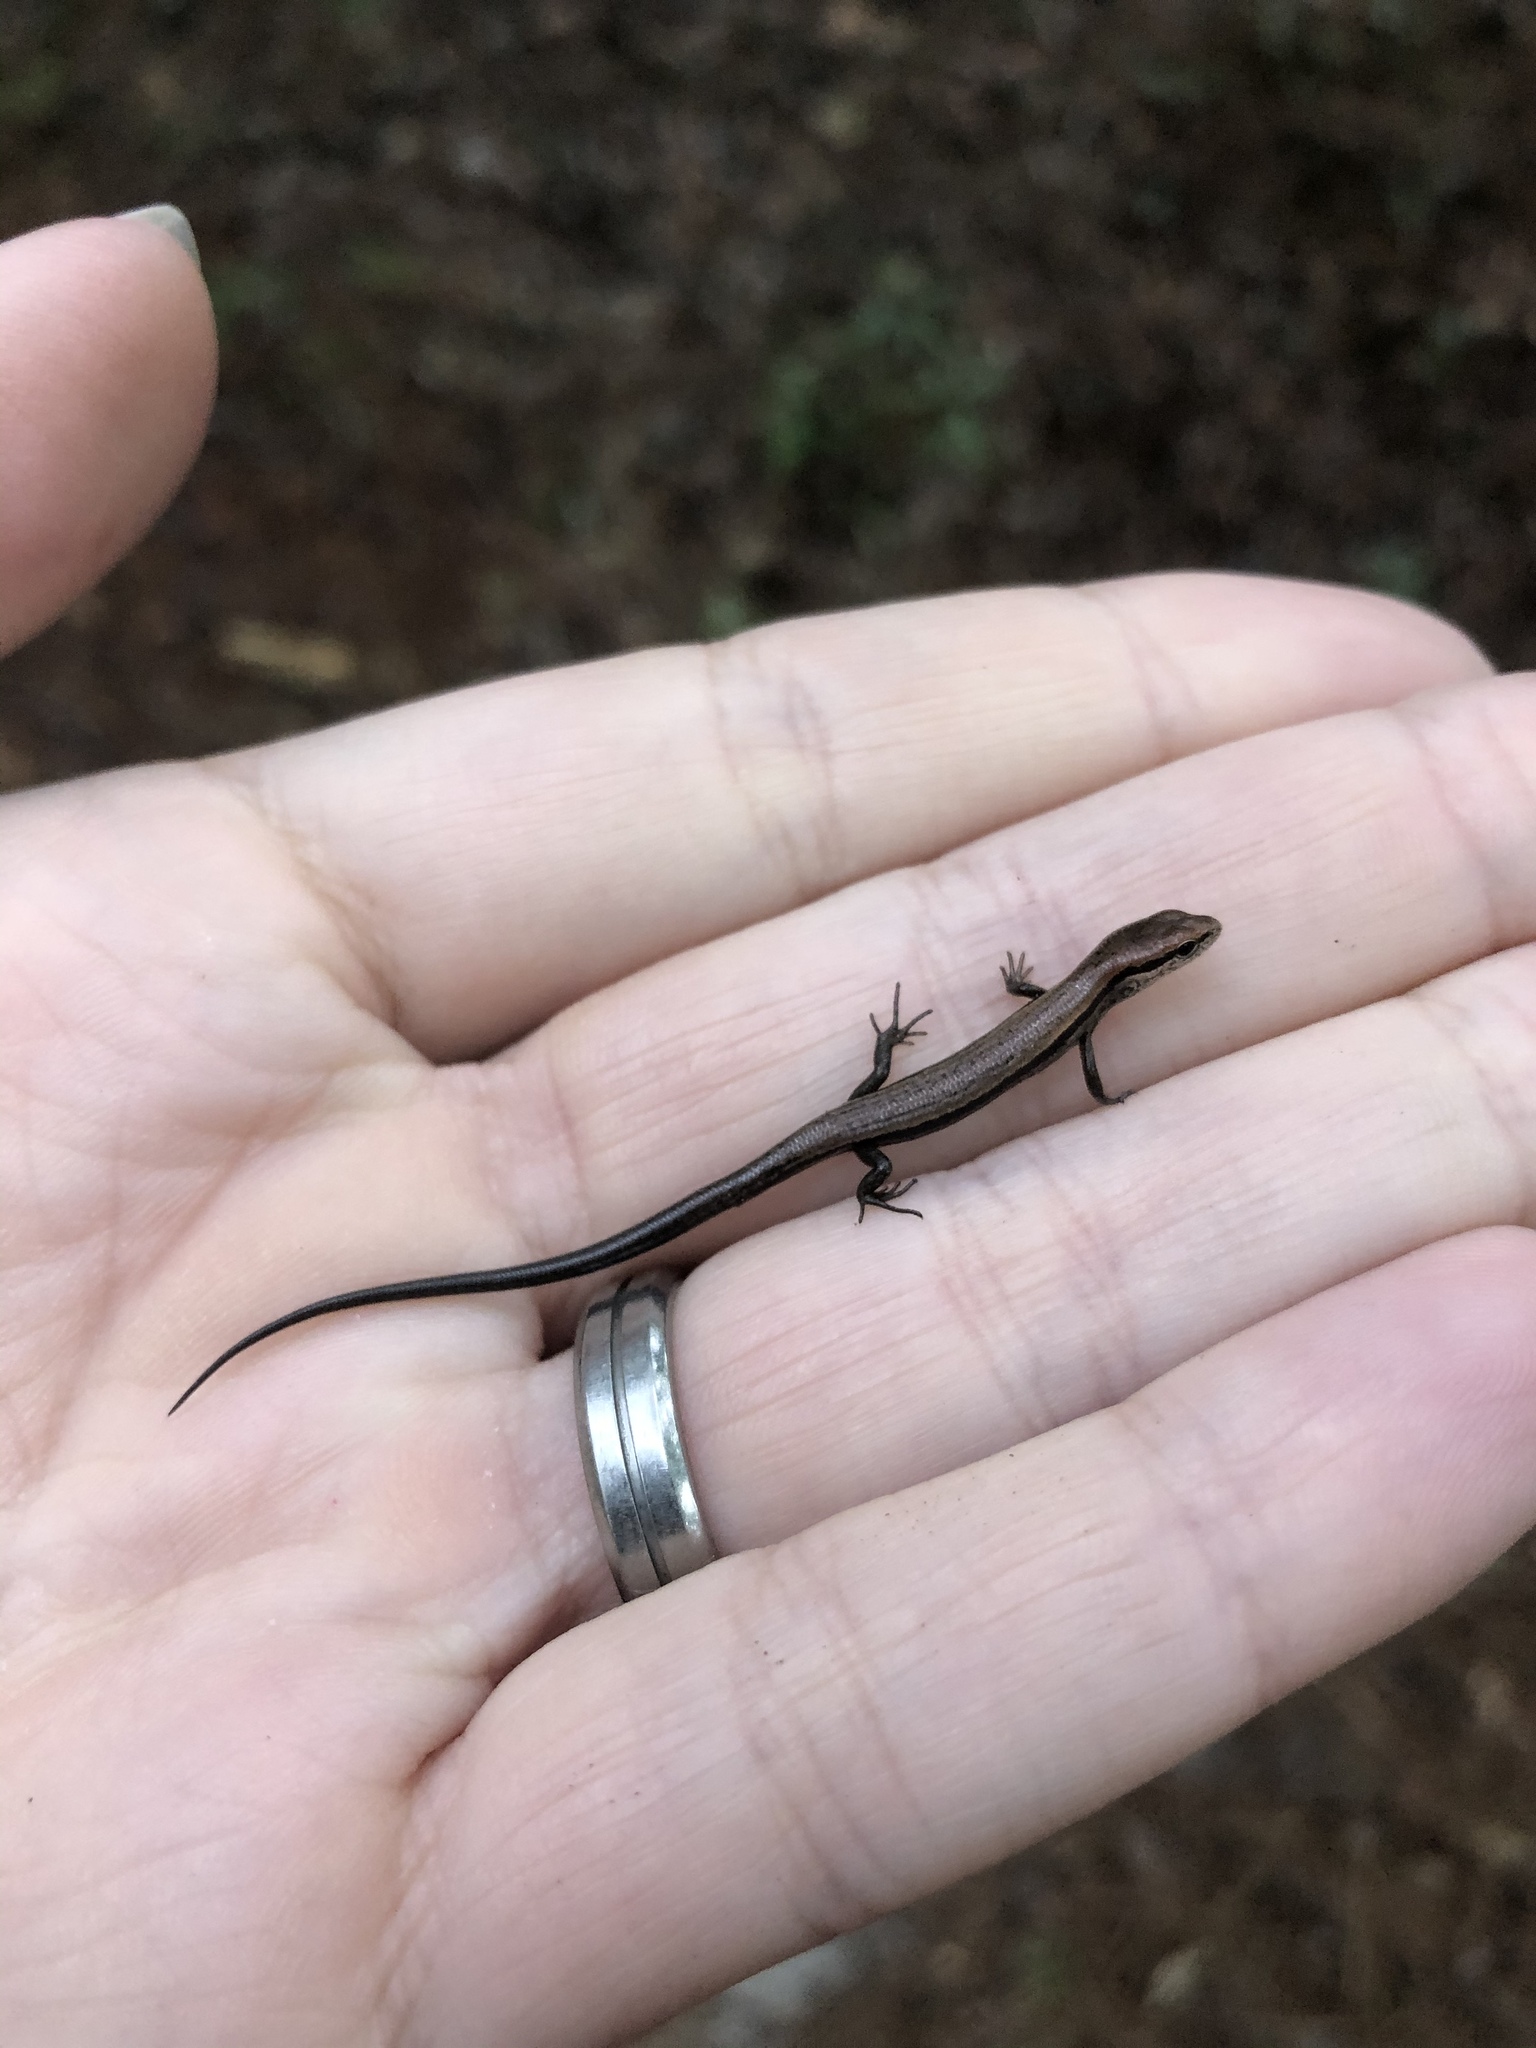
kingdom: Animalia
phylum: Chordata
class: Squamata
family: Scincidae
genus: Scincella
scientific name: Scincella lateralis
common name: Ground skink
